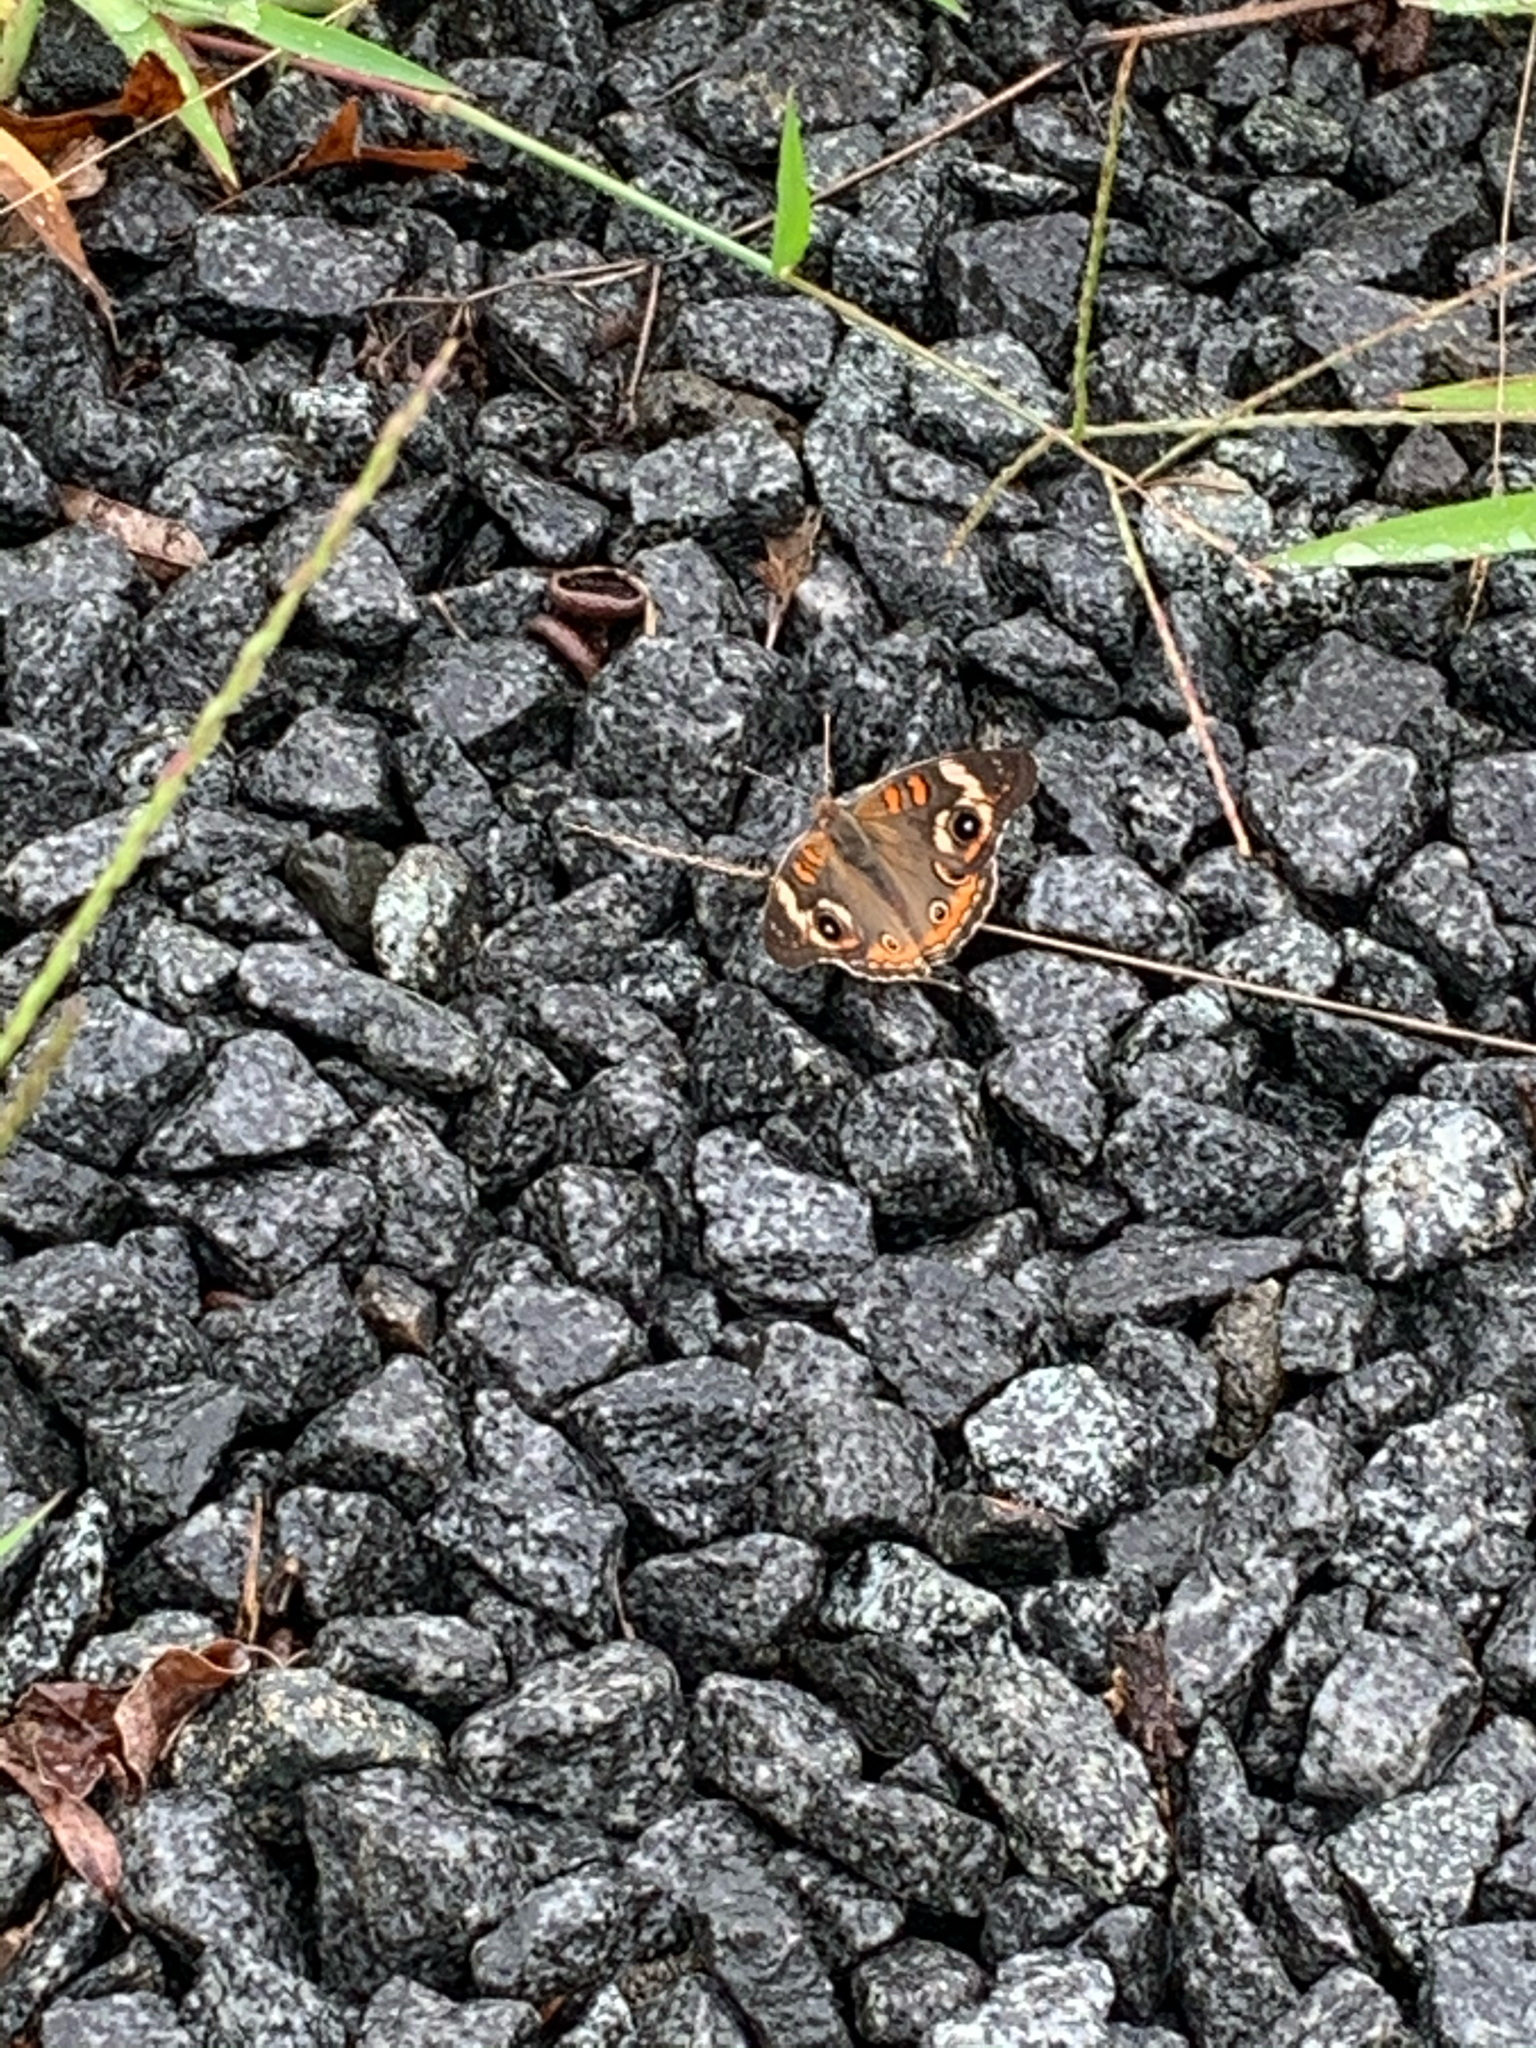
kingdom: Animalia
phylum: Arthropoda
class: Insecta
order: Lepidoptera
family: Nymphalidae
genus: Junonia
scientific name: Junonia coenia
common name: Common buckeye
